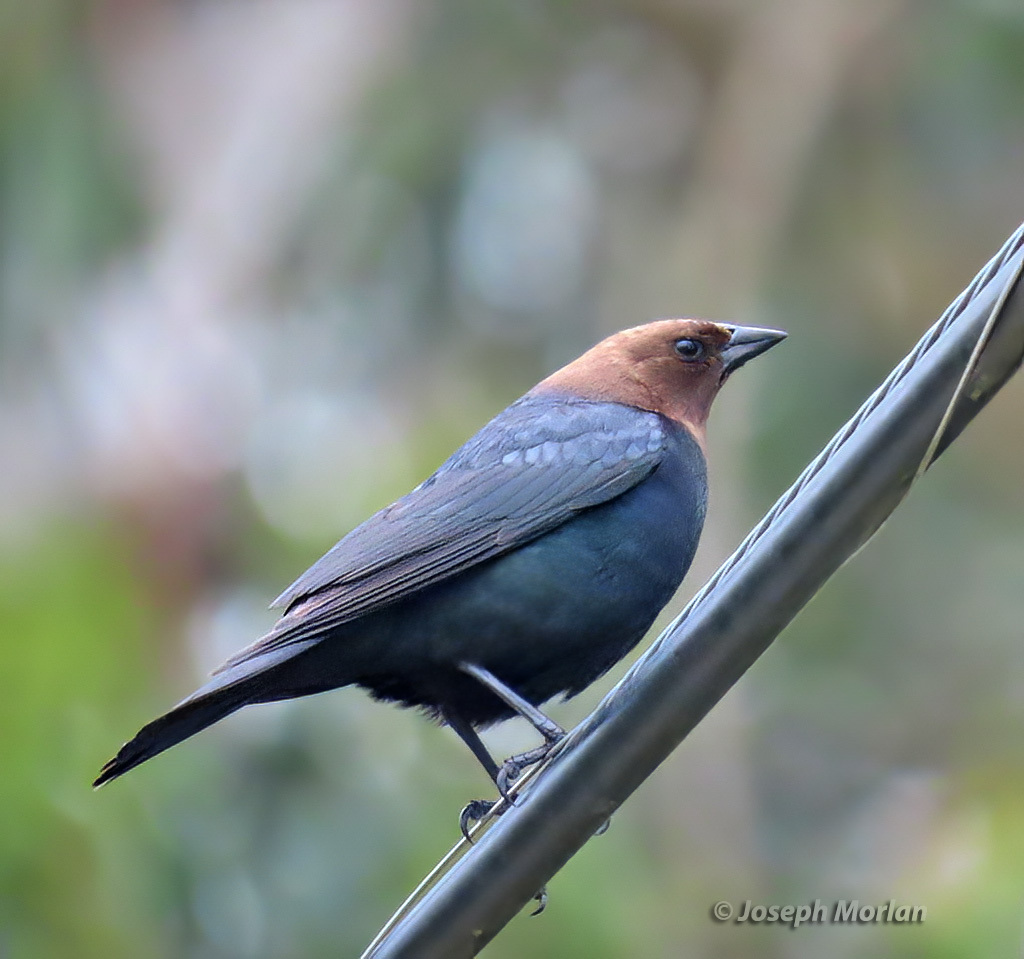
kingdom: Animalia
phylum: Chordata
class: Aves
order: Passeriformes
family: Icteridae
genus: Molothrus
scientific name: Molothrus ater
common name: Brown-headed cowbird
